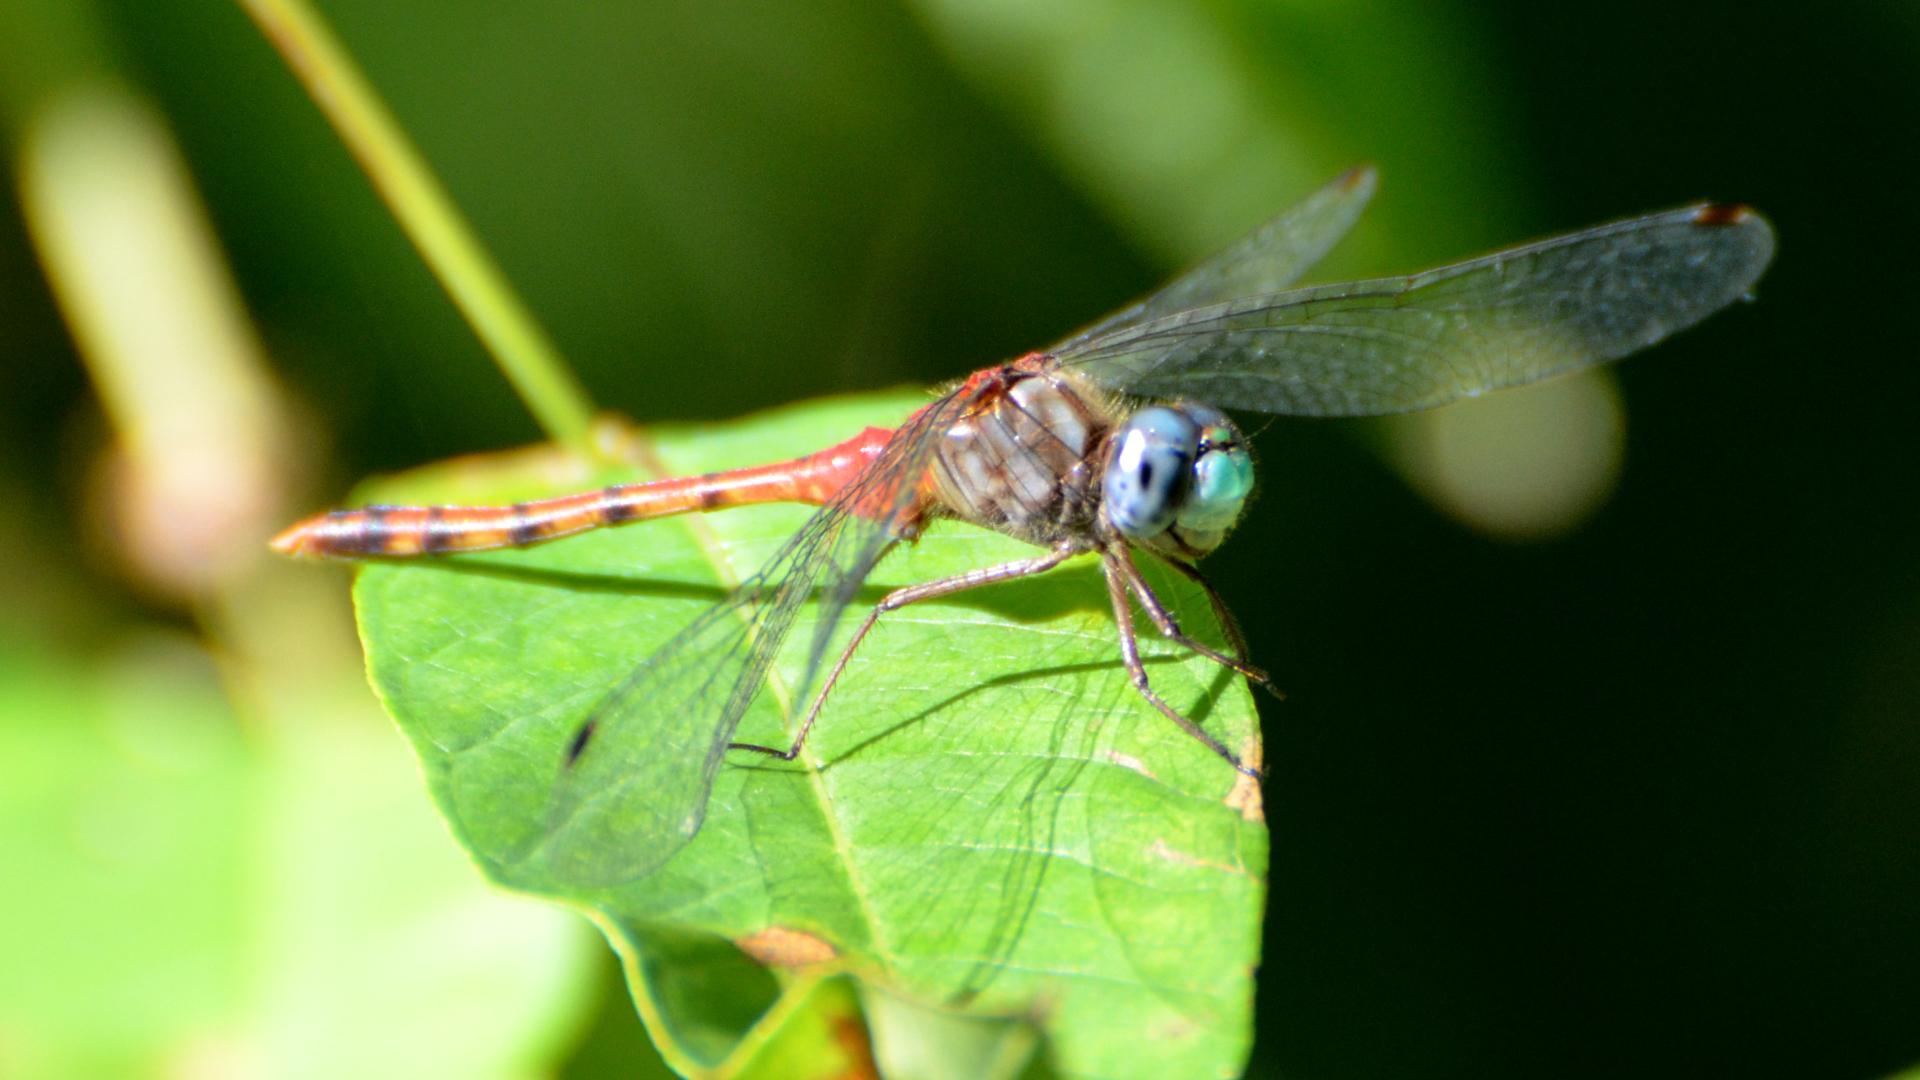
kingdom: Animalia
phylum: Arthropoda
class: Insecta
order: Odonata
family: Libellulidae
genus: Sympetrum
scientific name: Sympetrum ambiguum
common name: Blue-faced meadowhawk
